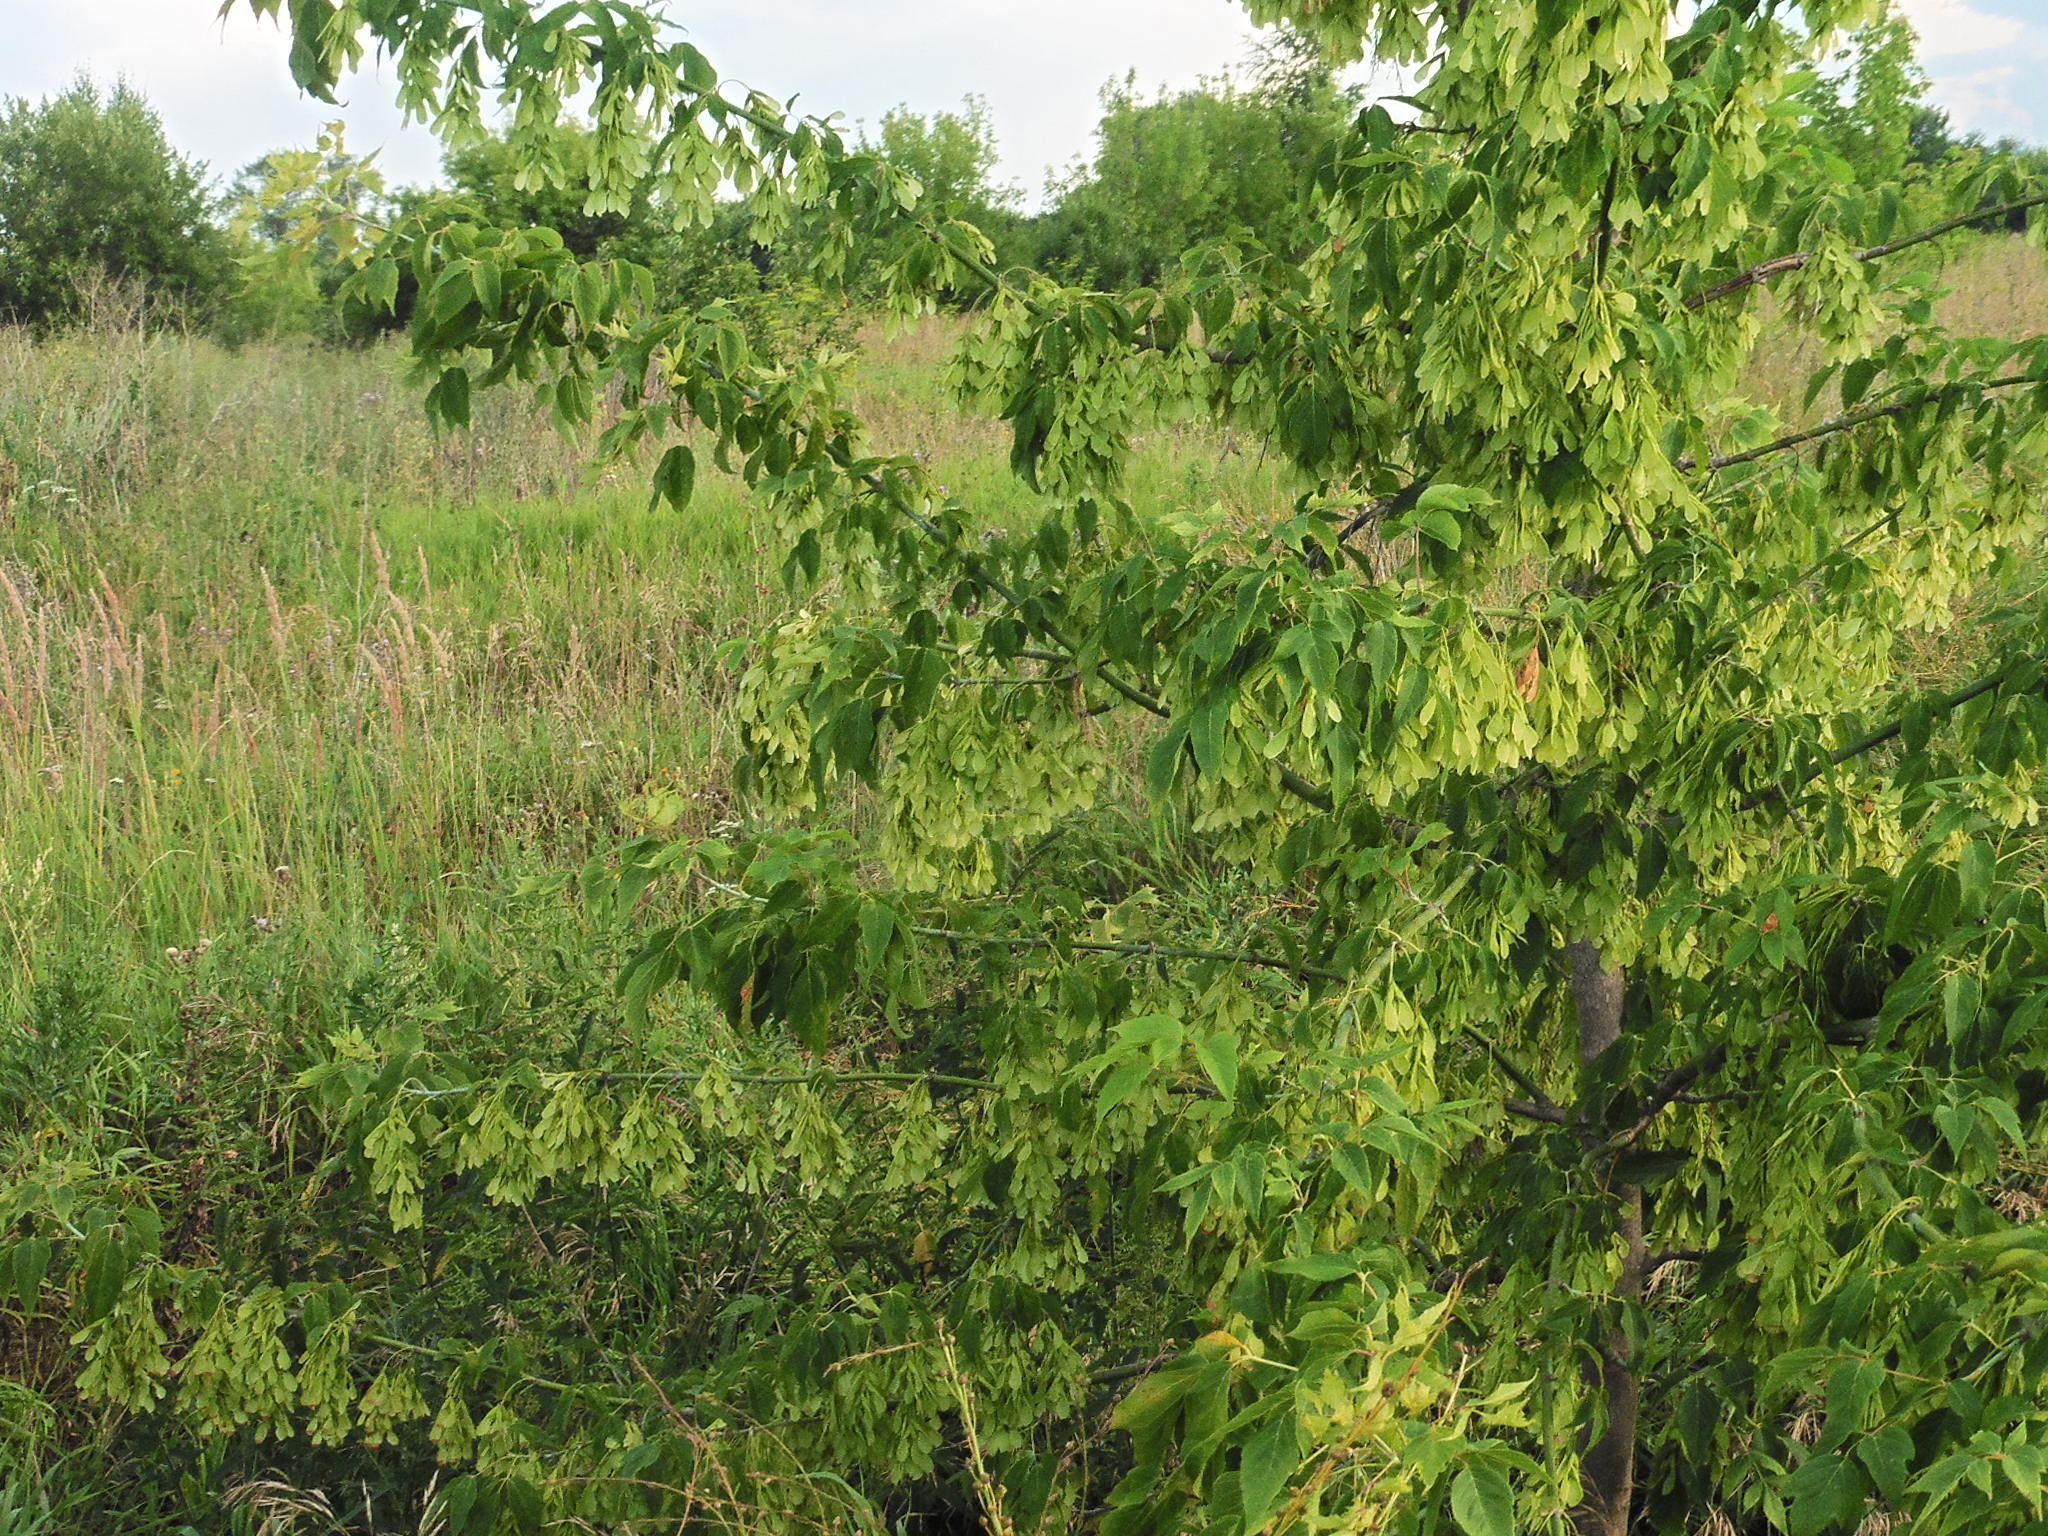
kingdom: Plantae
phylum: Tracheophyta
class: Magnoliopsida
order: Sapindales
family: Sapindaceae
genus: Acer
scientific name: Acer negundo
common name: Ashleaf maple
